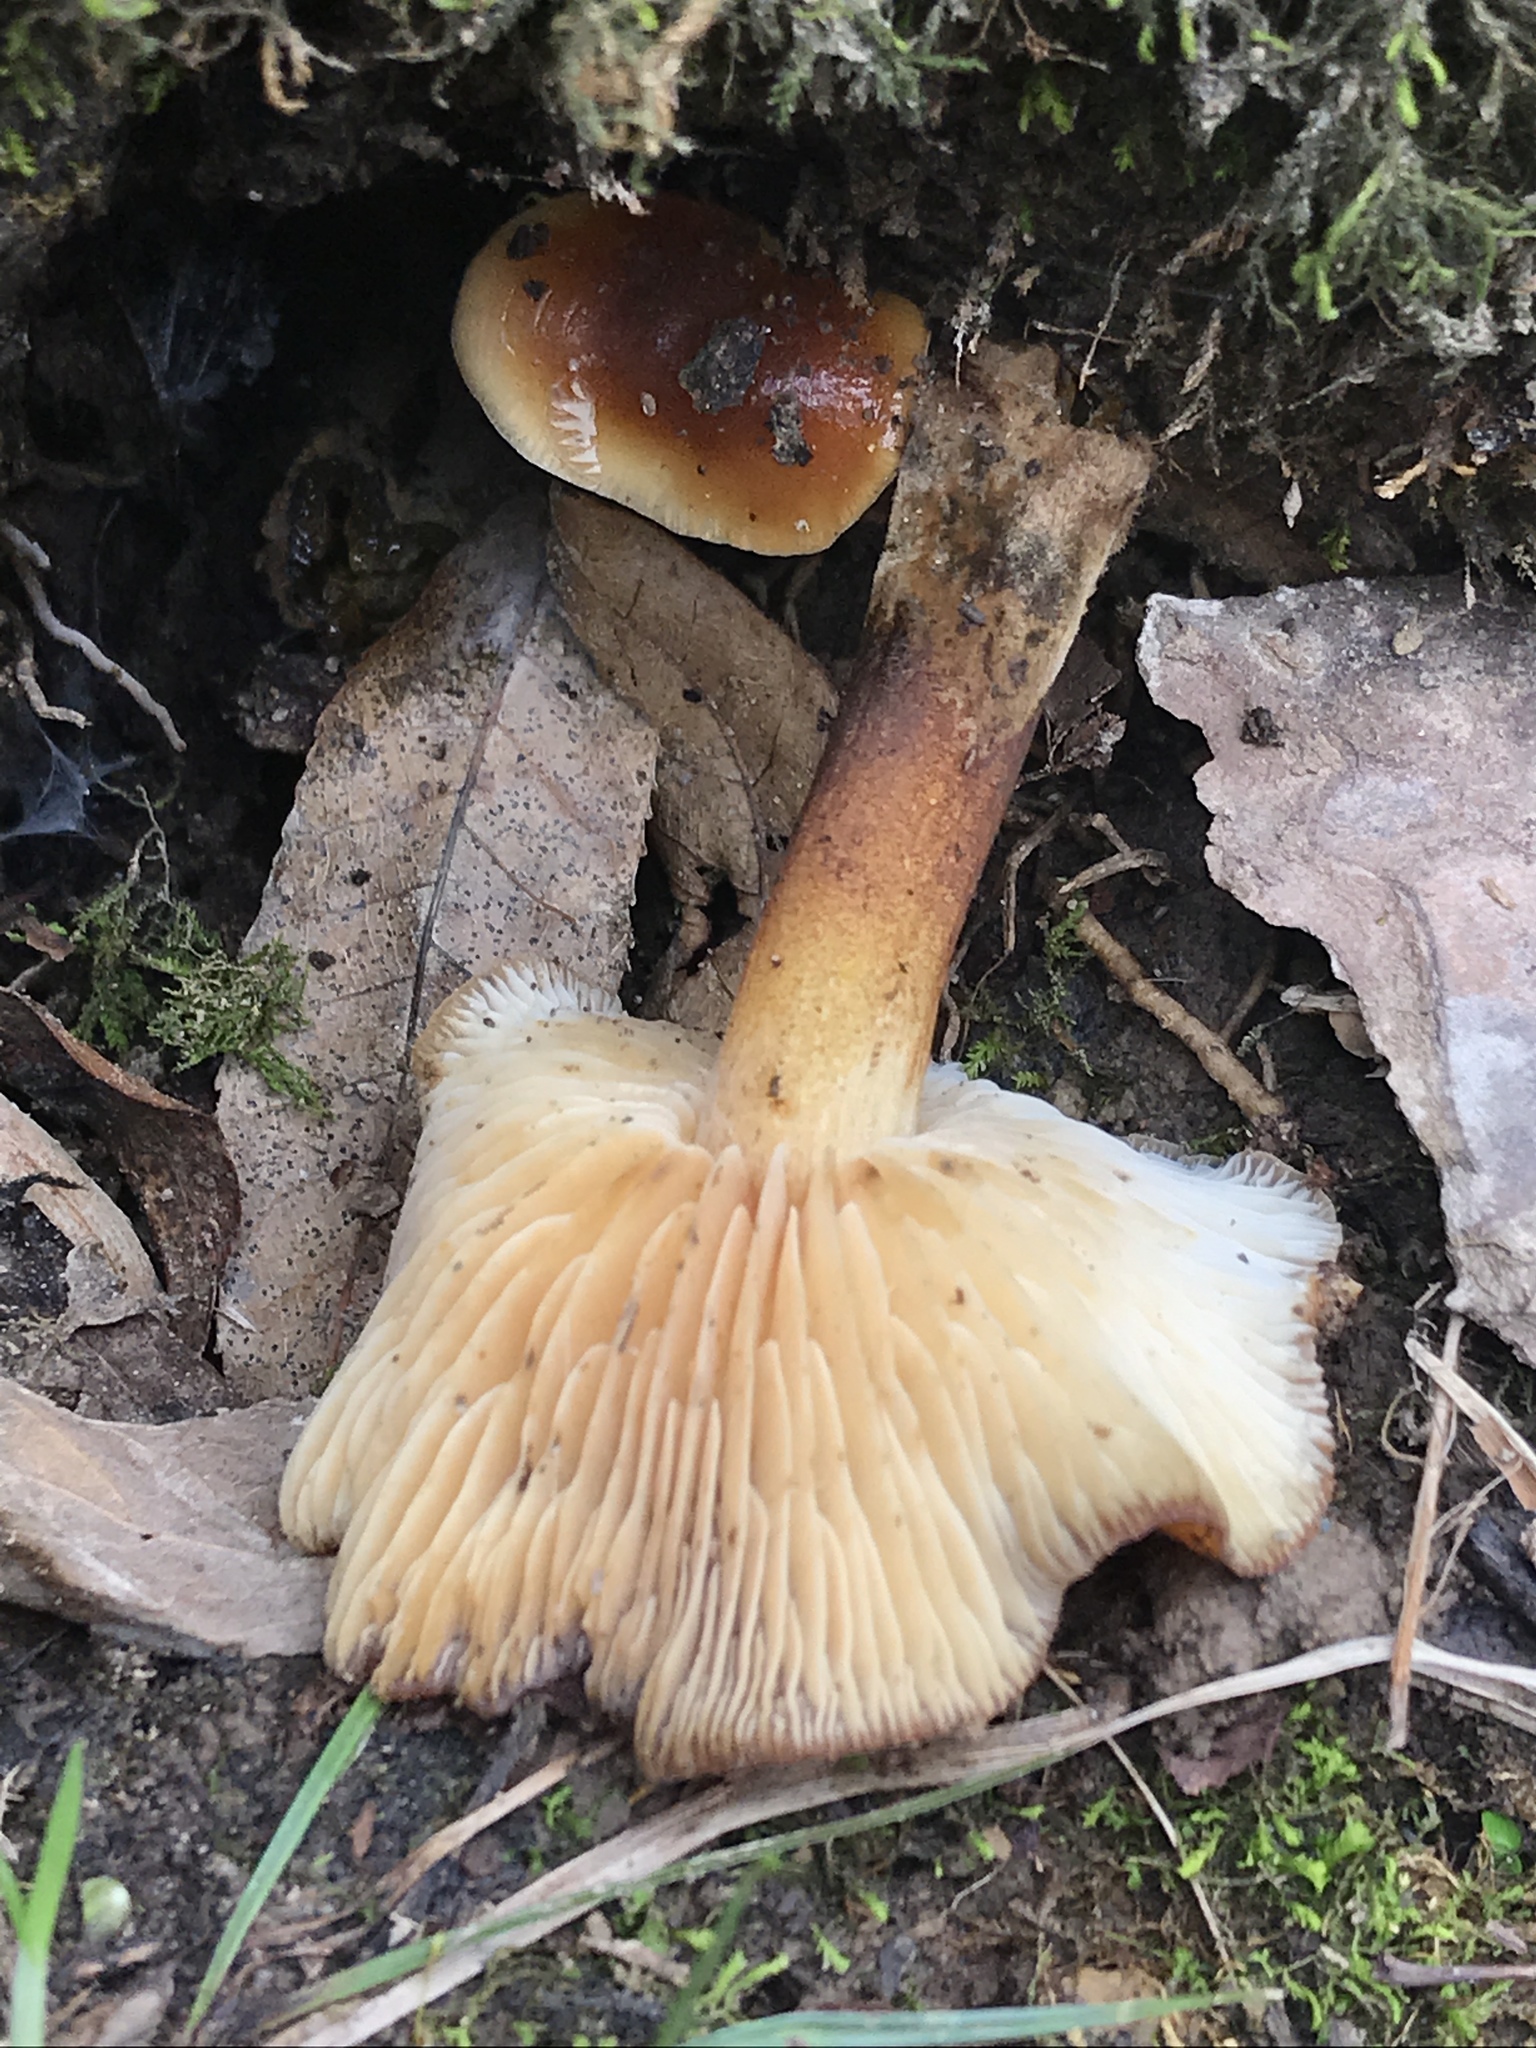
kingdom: Fungi
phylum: Basidiomycota
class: Agaricomycetes
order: Agaricales
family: Physalacriaceae
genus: Flammulina
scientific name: Flammulina velutipes
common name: Velvet shank
